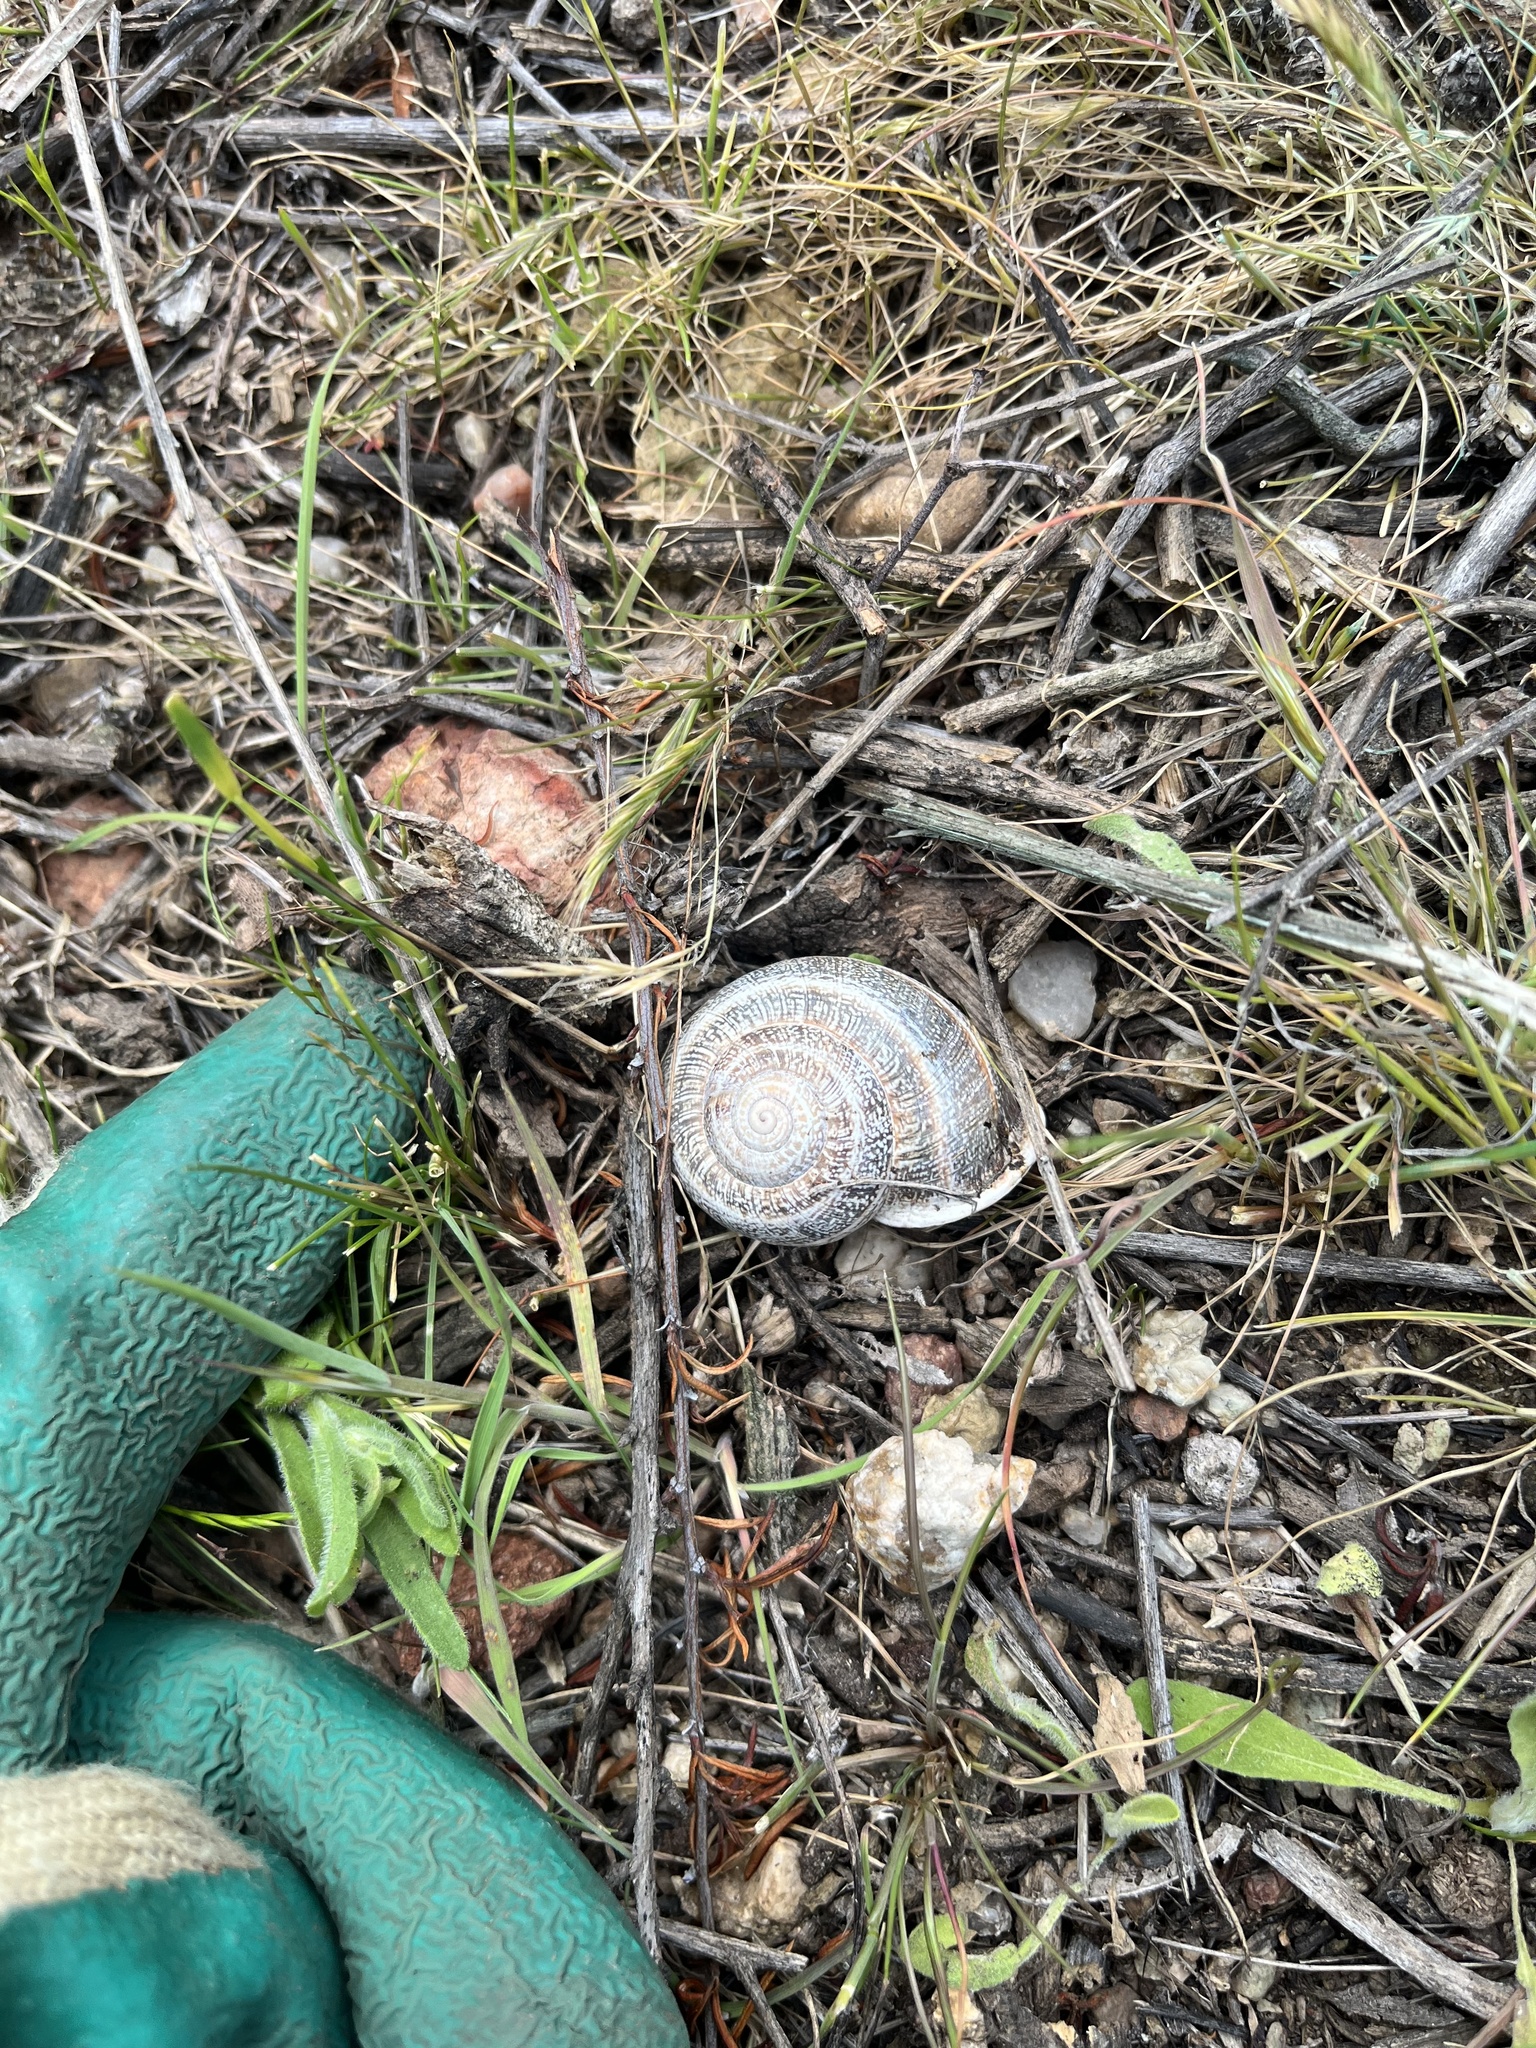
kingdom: Animalia
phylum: Mollusca
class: Gastropoda
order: Stylommatophora
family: Helicidae
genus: Otala
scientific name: Otala lactea
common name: Milk snail
